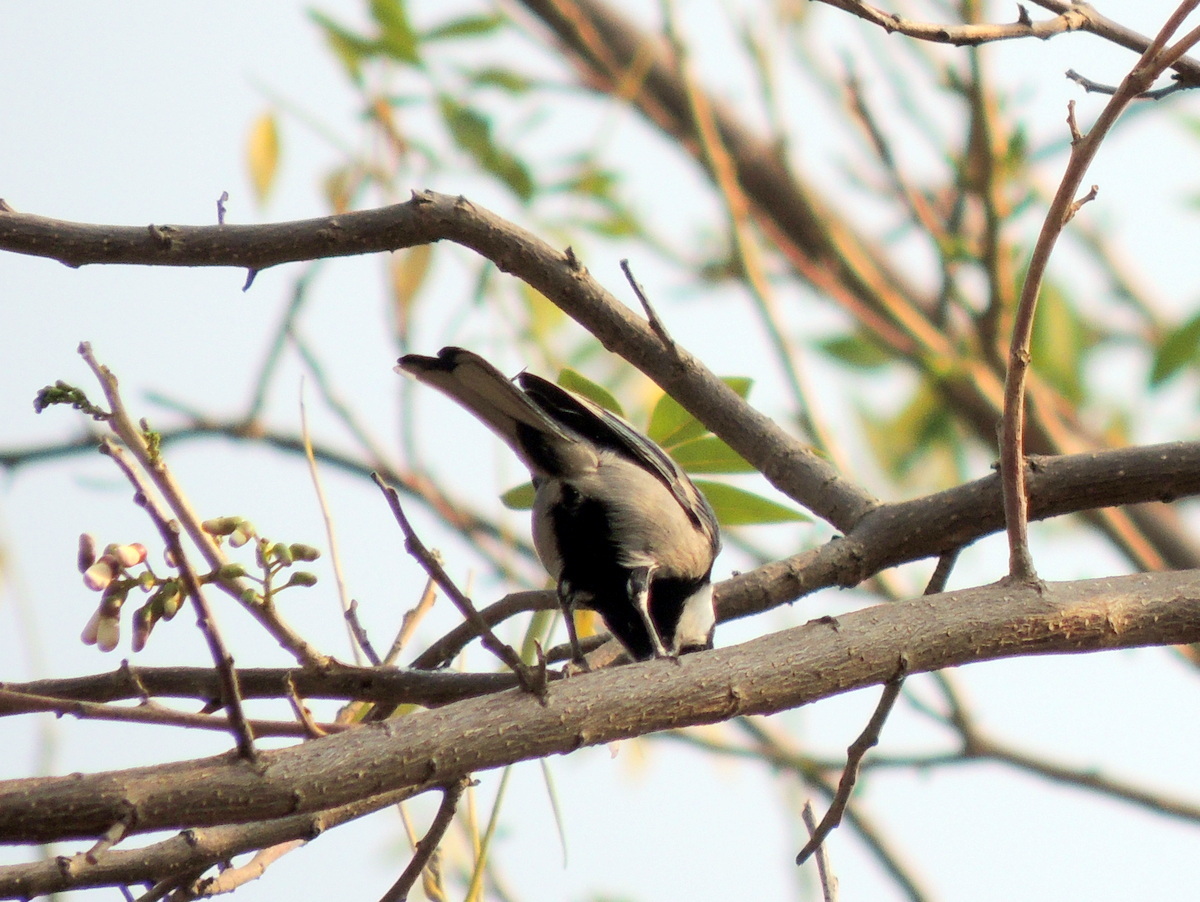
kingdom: Animalia
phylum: Chordata
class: Aves
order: Passeriformes
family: Paridae
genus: Parus
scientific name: Parus cinereus
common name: Cinereous tit
